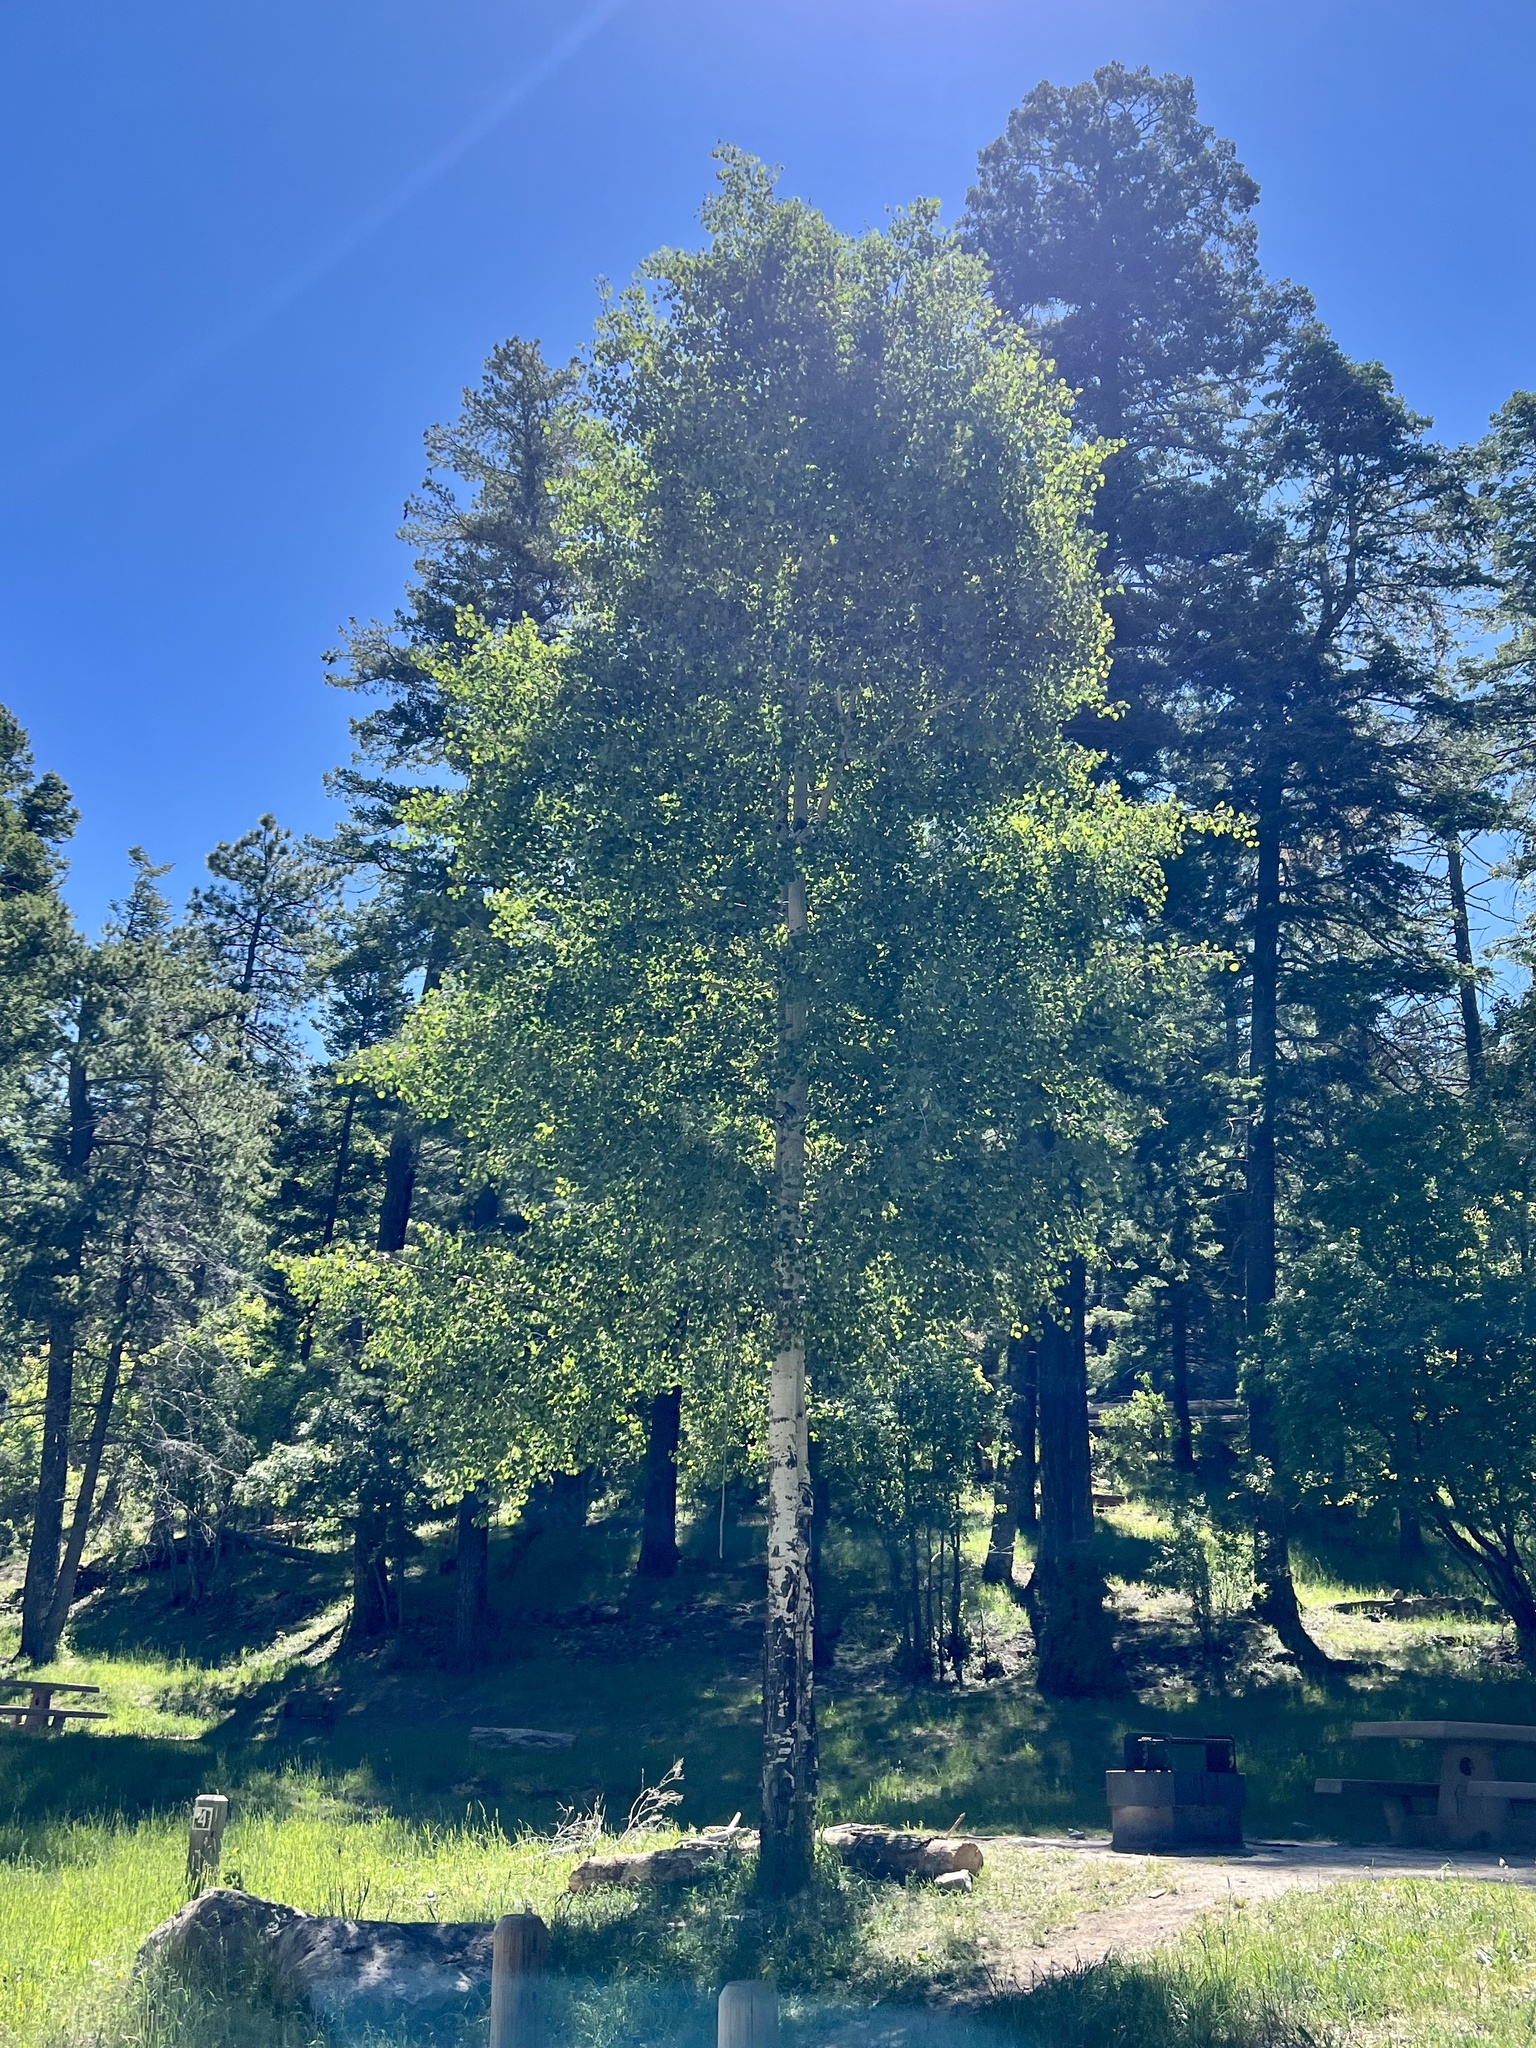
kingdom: Plantae
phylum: Tracheophyta
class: Magnoliopsida
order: Malpighiales
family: Salicaceae
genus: Populus
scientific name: Populus tremuloides
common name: Quaking aspen
